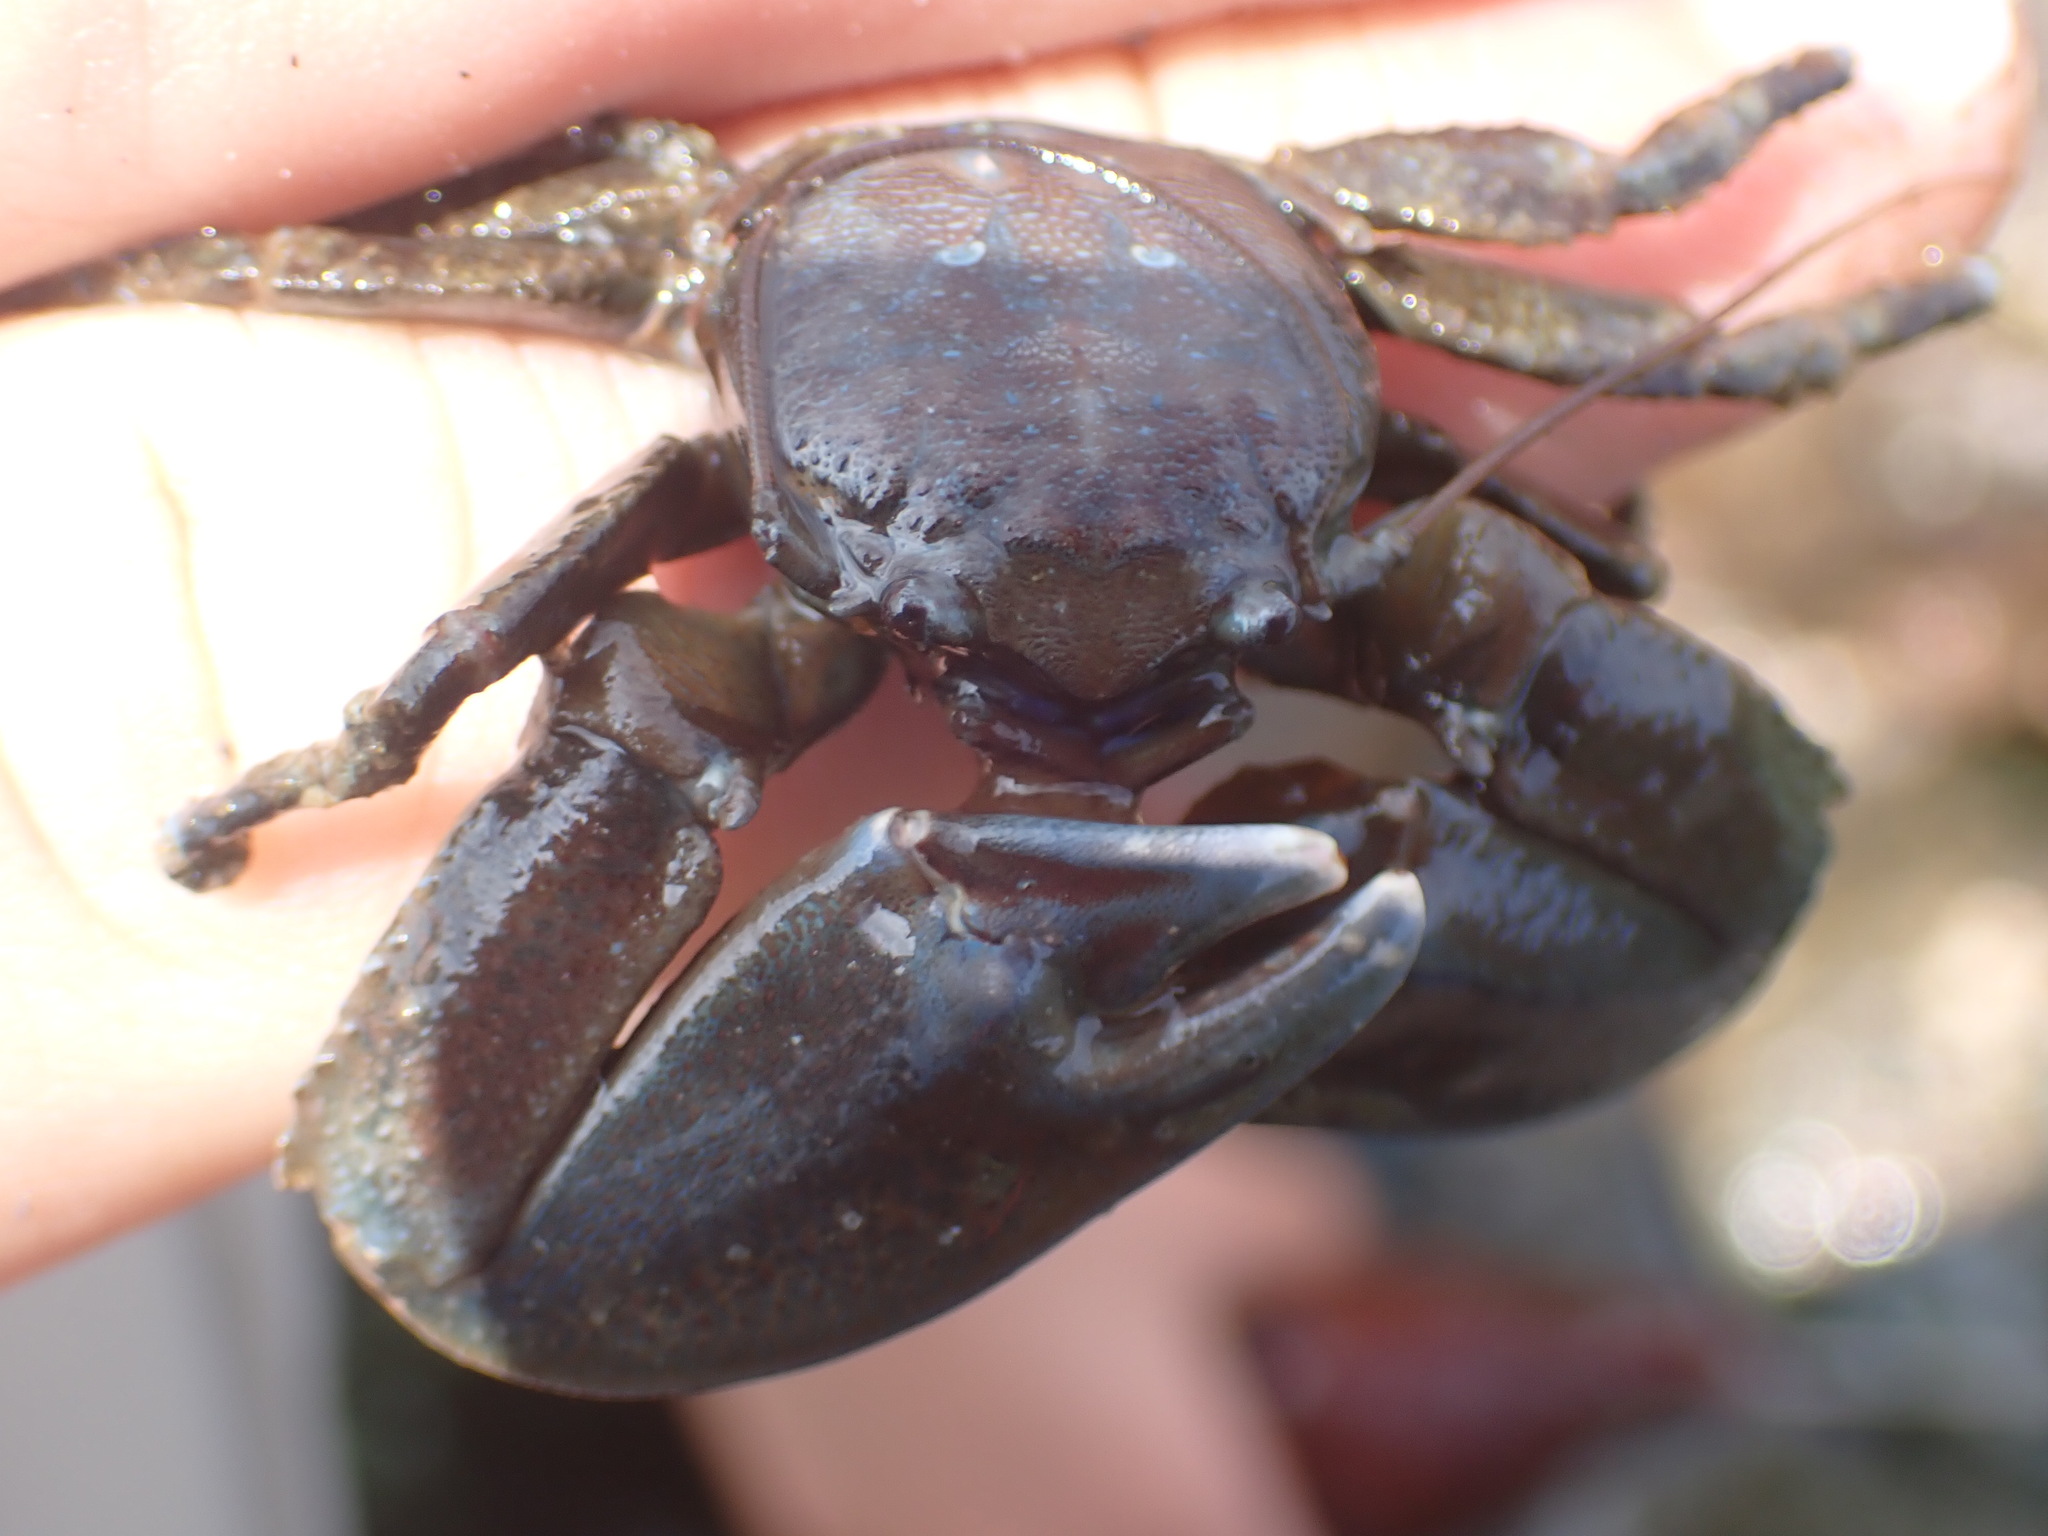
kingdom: Animalia
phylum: Arthropoda
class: Malacostraca
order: Decapoda
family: Porcellanidae
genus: Petrolisthes
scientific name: Petrolisthes eriomerus
